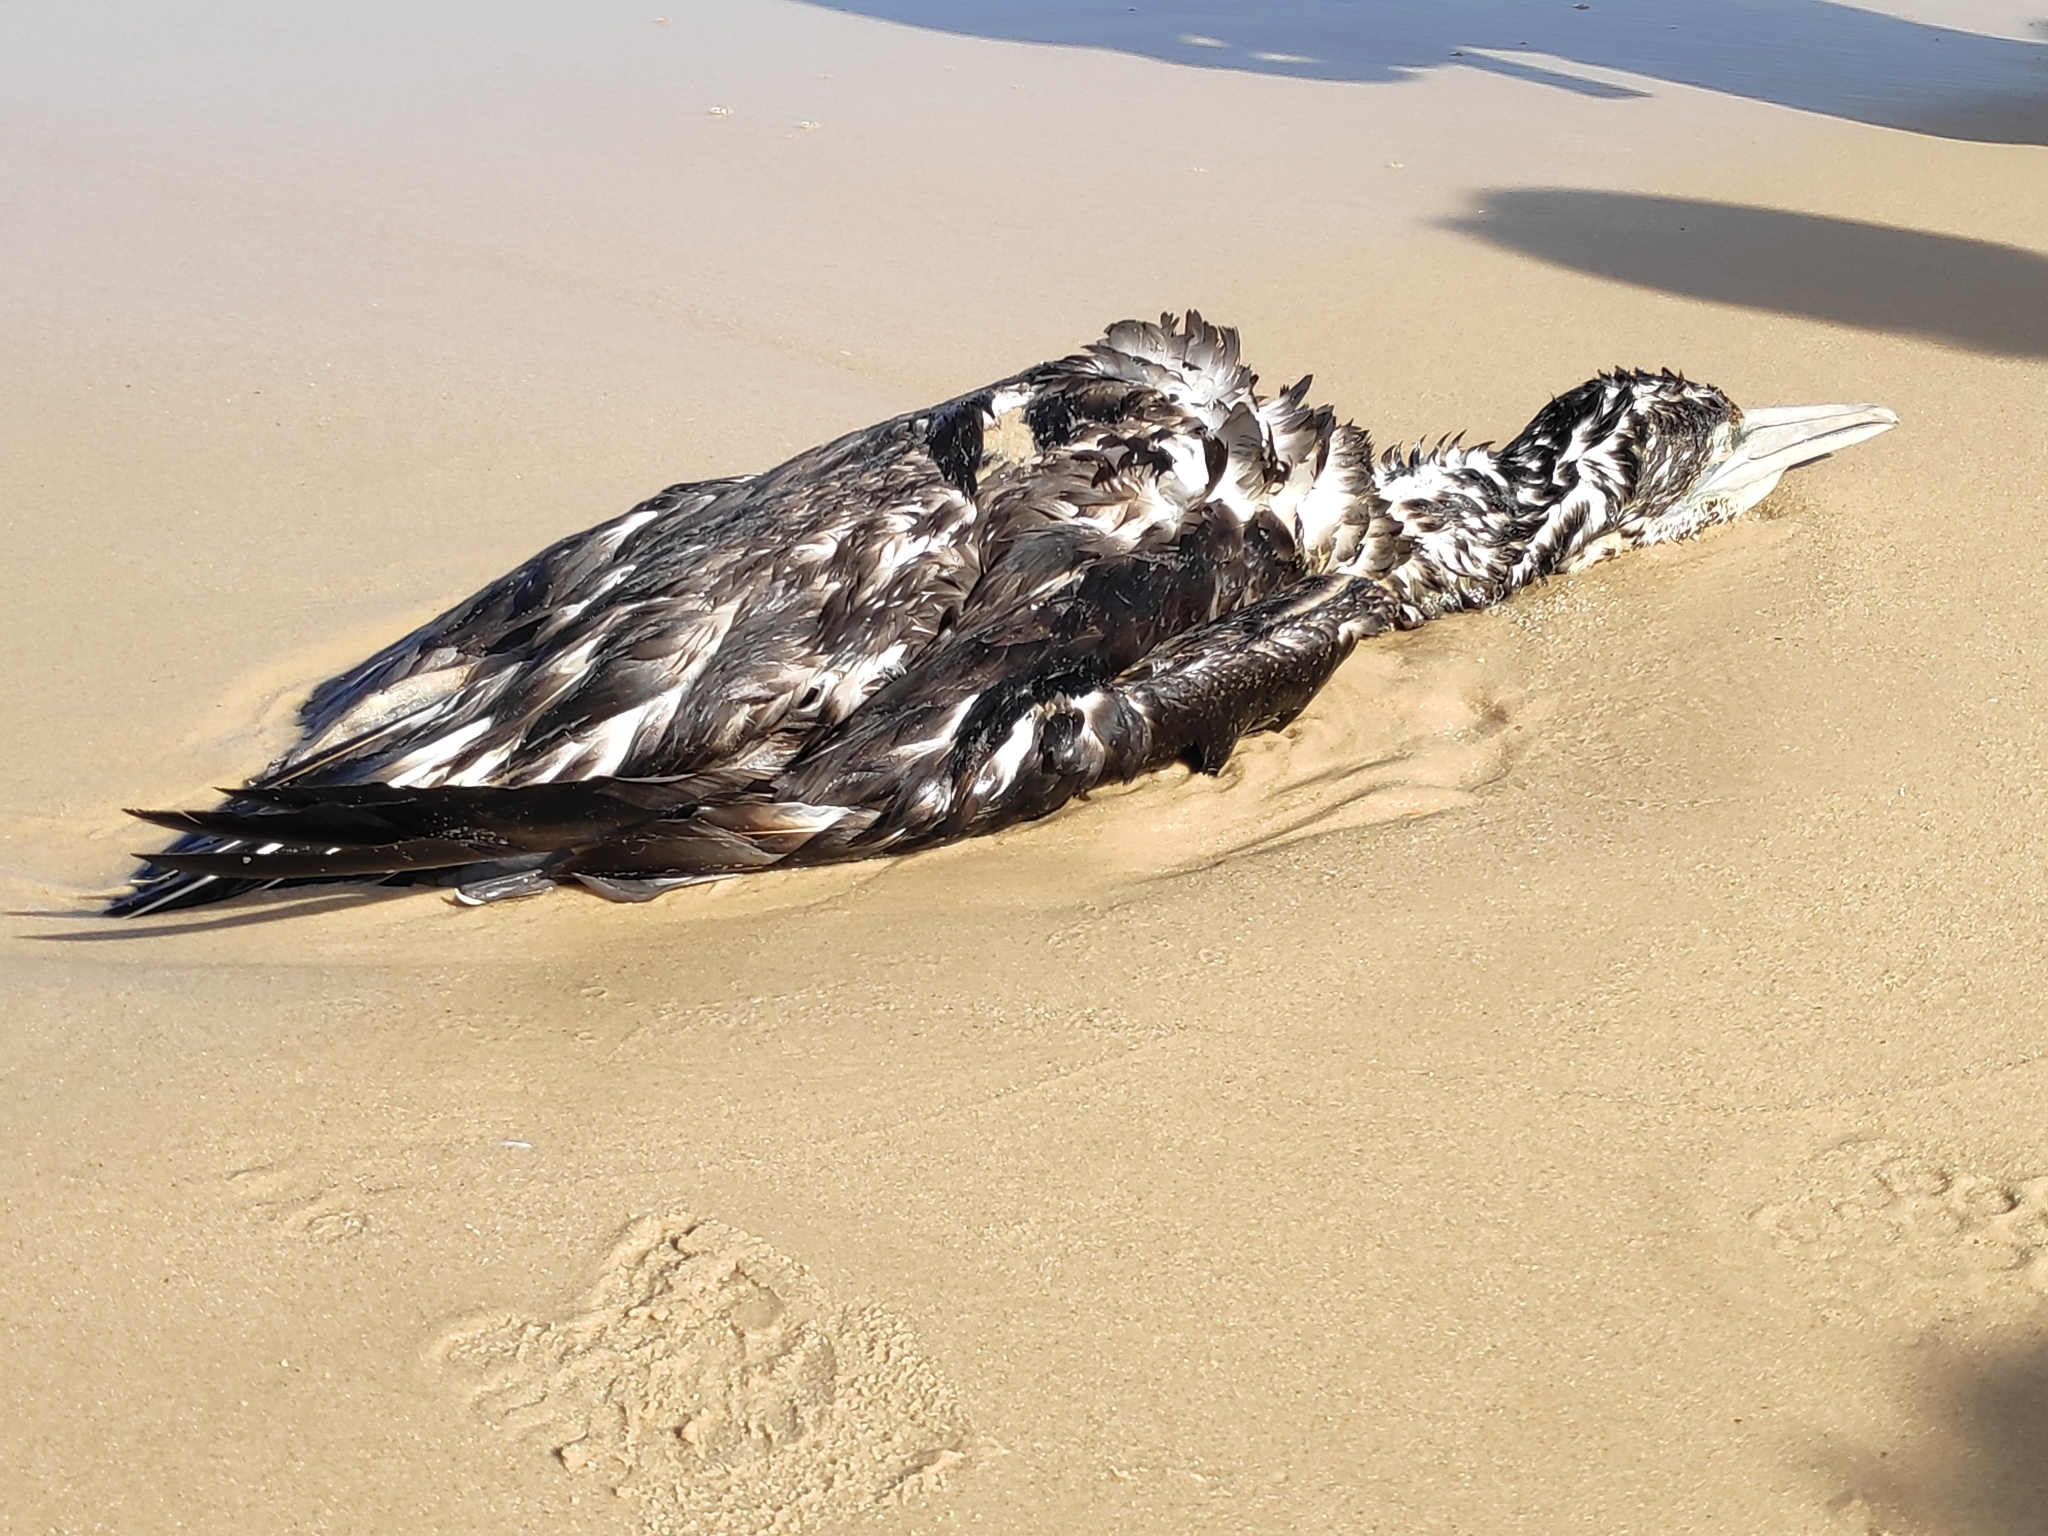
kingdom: Animalia
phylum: Chordata
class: Aves
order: Suliformes
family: Sulidae
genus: Morus
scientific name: Morus bassanus
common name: Northern gannet
